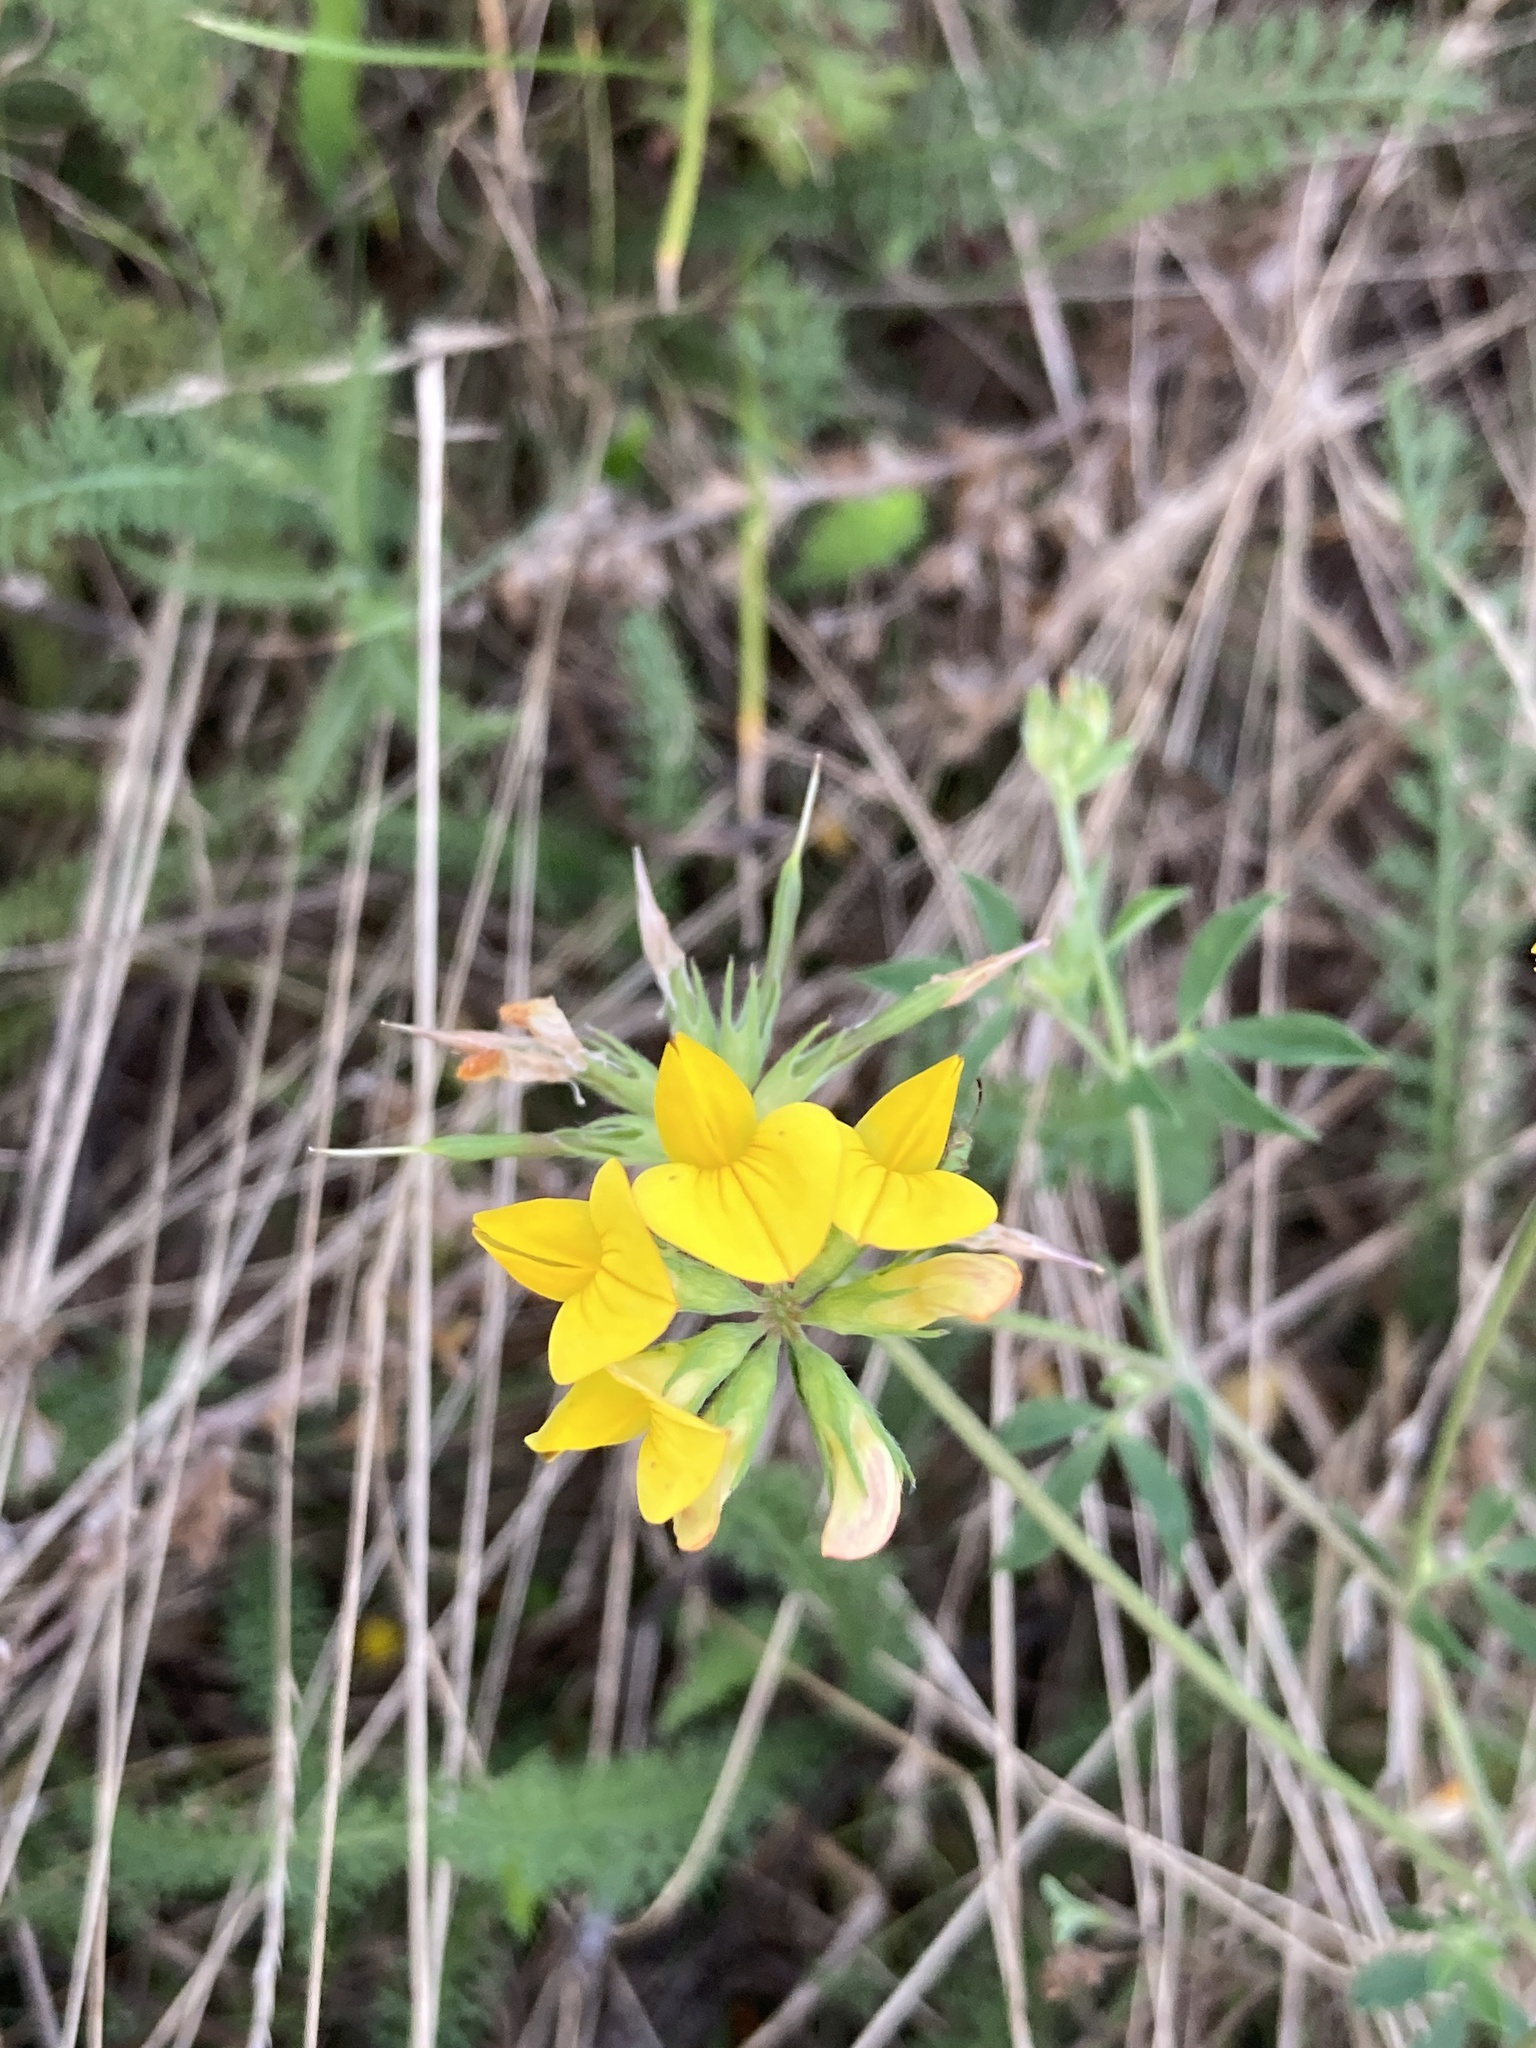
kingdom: Plantae
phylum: Tracheophyta
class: Magnoliopsida
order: Fabales
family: Fabaceae
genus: Lotus
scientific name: Lotus corniculatus
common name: Common bird's-foot-trefoil
